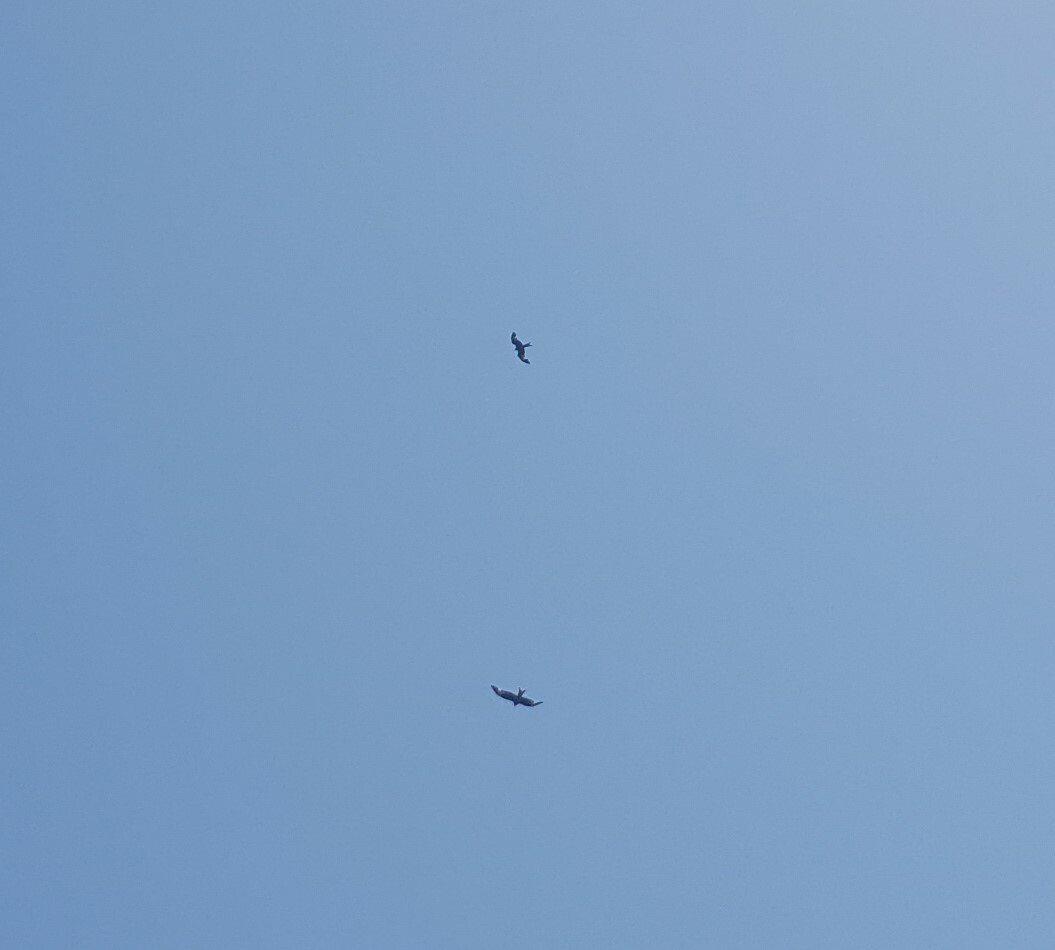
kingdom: Animalia
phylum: Chordata
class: Aves
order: Accipitriformes
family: Accipitridae
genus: Milvus
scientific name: Milvus milvus
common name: Red kite
